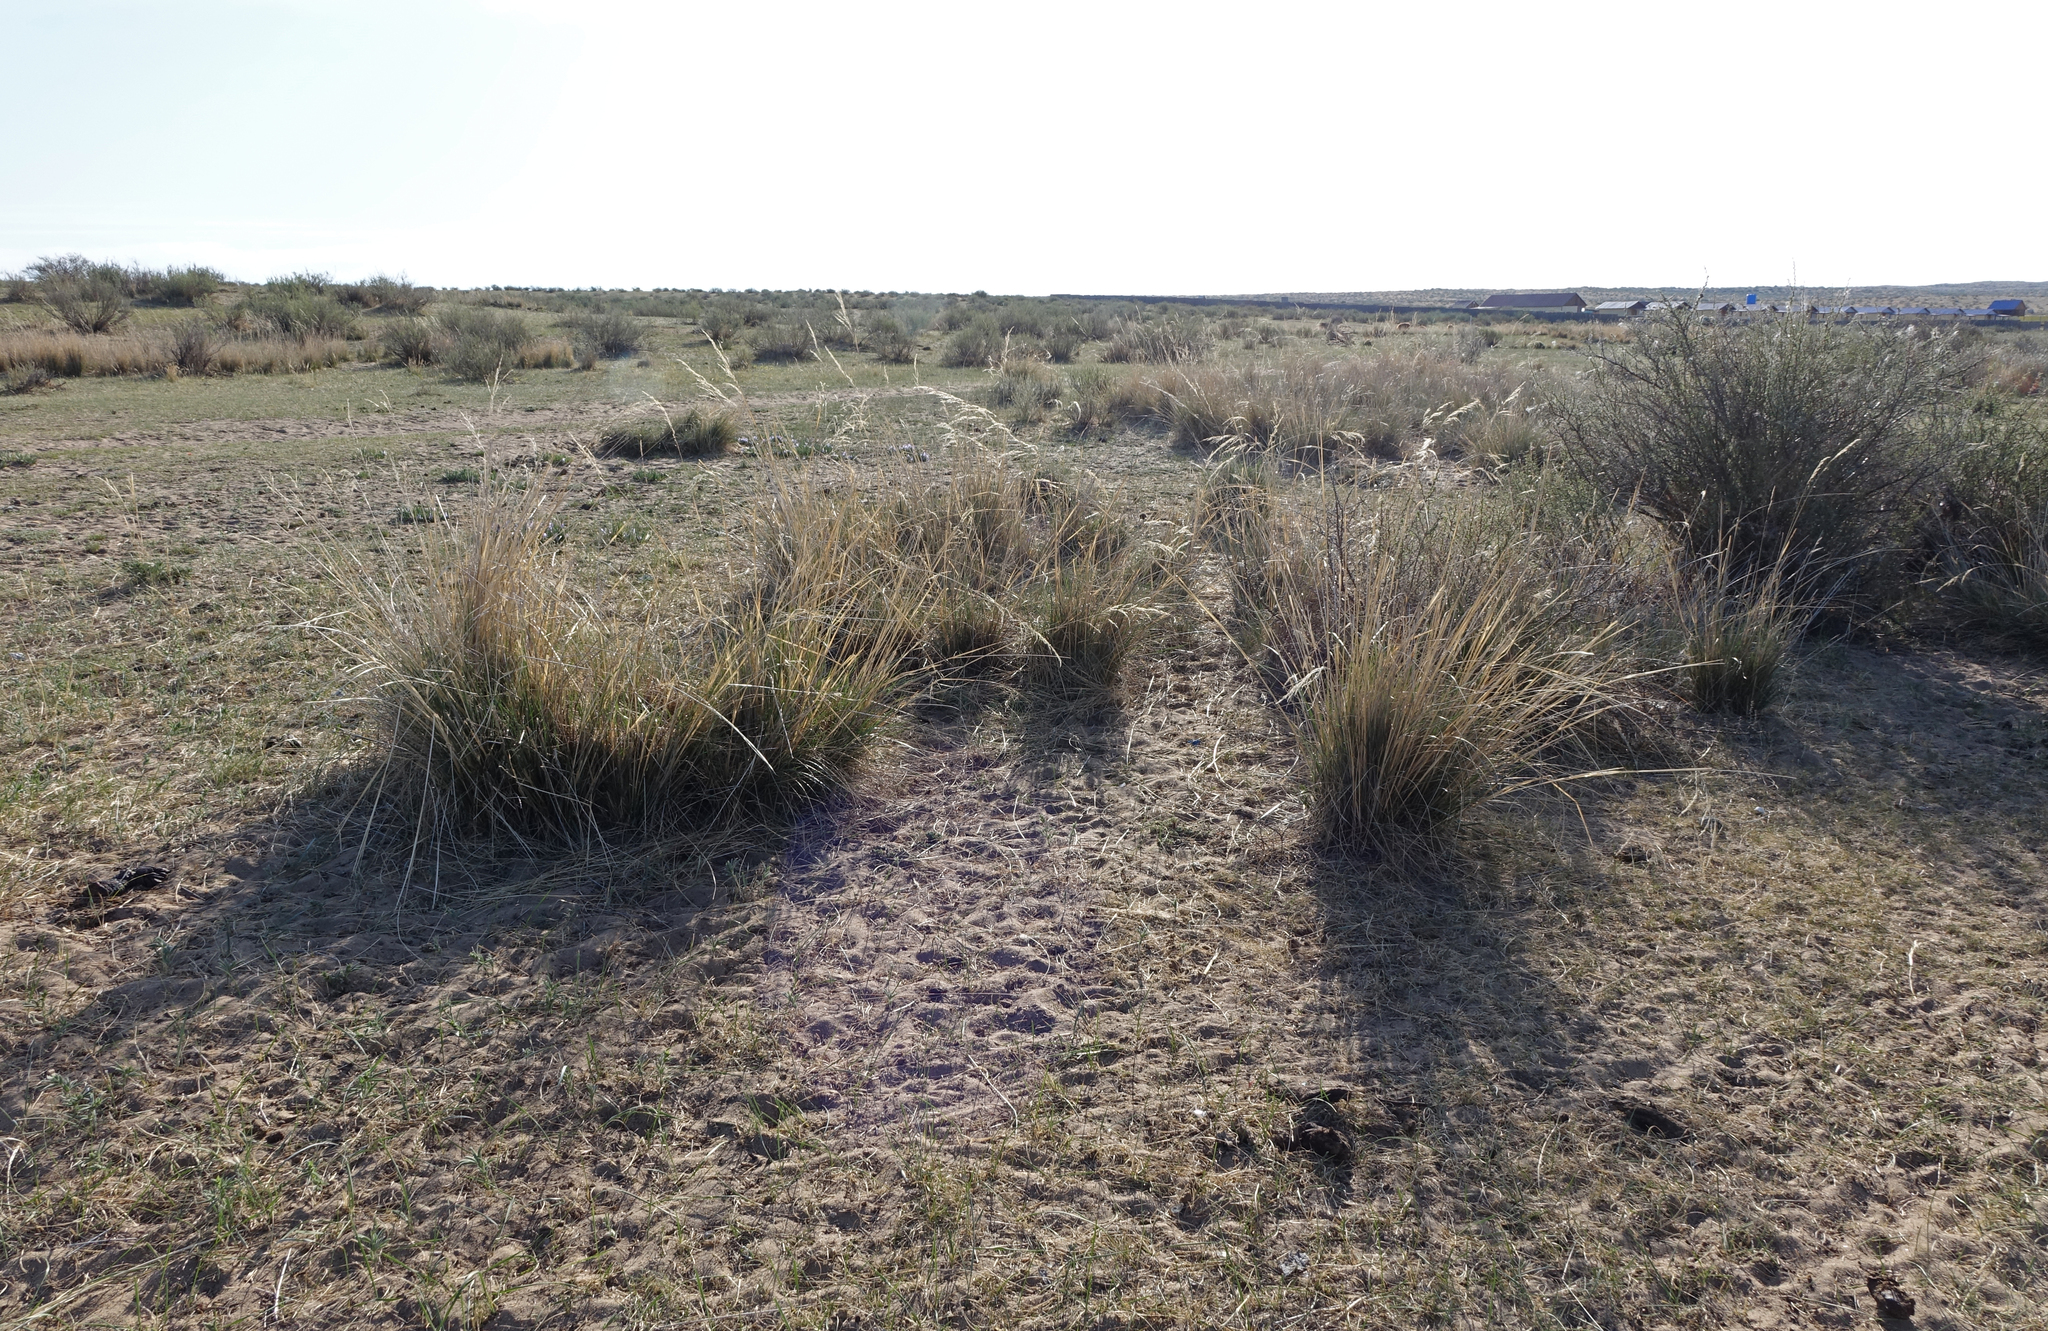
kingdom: Plantae
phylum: Tracheophyta
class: Liliopsida
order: Poales
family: Poaceae
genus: Neotrinia
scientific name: Neotrinia splendens
